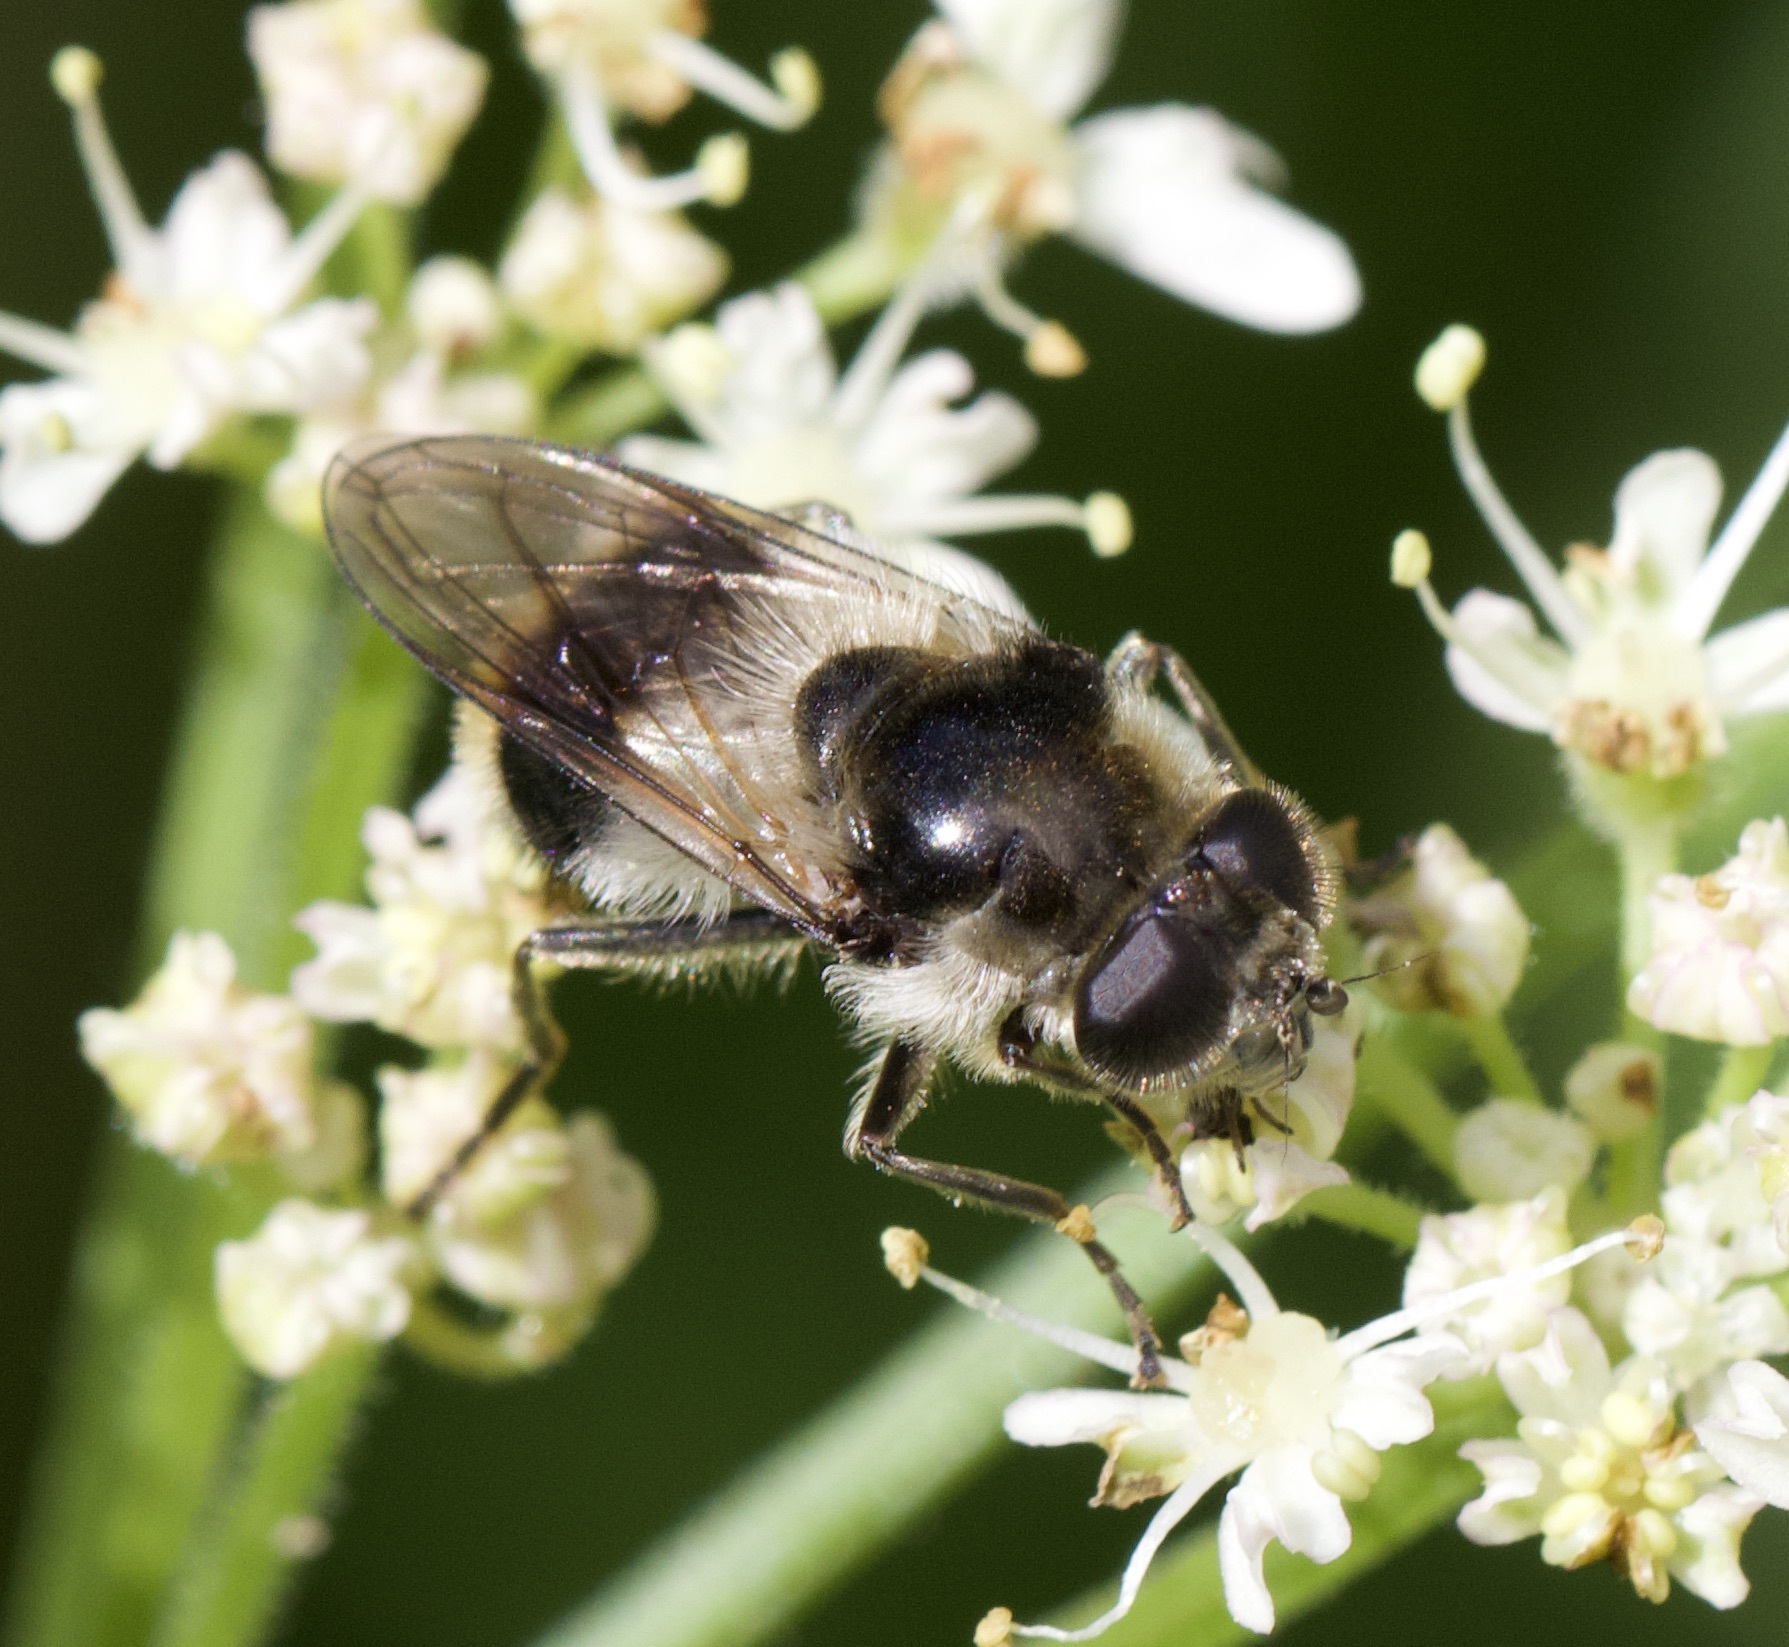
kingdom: Animalia
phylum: Arthropoda
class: Insecta
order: Diptera
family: Syrphidae
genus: Cheilosia
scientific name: Cheilosia illustrata
